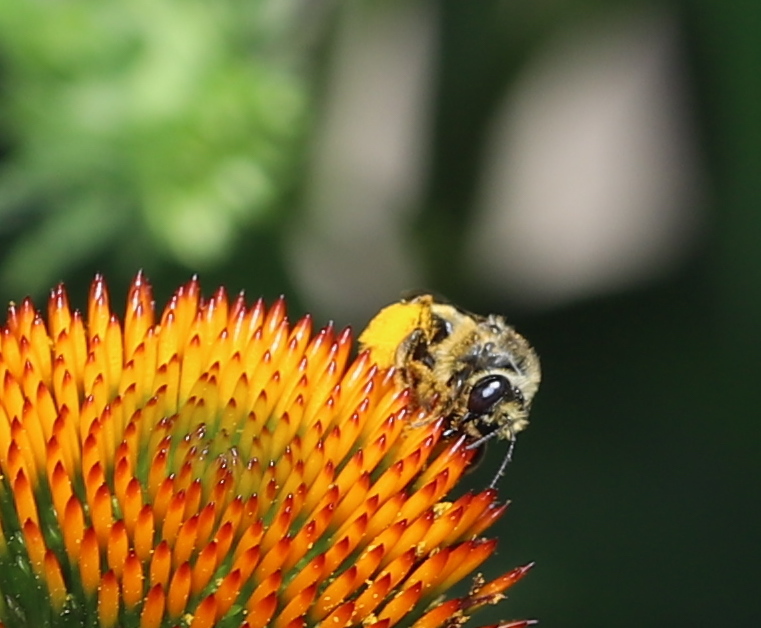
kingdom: Animalia
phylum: Arthropoda
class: Insecta
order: Hymenoptera
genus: Eumelissodes
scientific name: Eumelissodes
